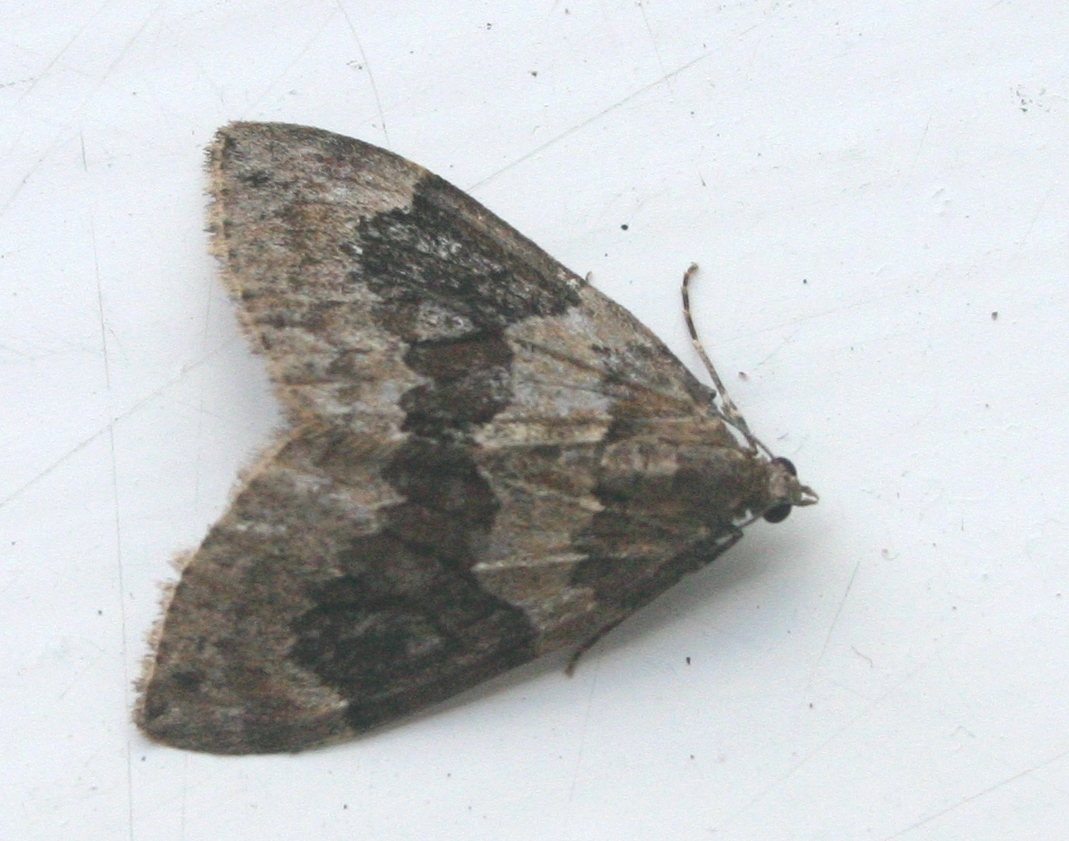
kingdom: Animalia
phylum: Arthropoda
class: Insecta
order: Lepidoptera
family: Geometridae
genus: Thera
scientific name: Thera britannica
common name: Spruce carpet
